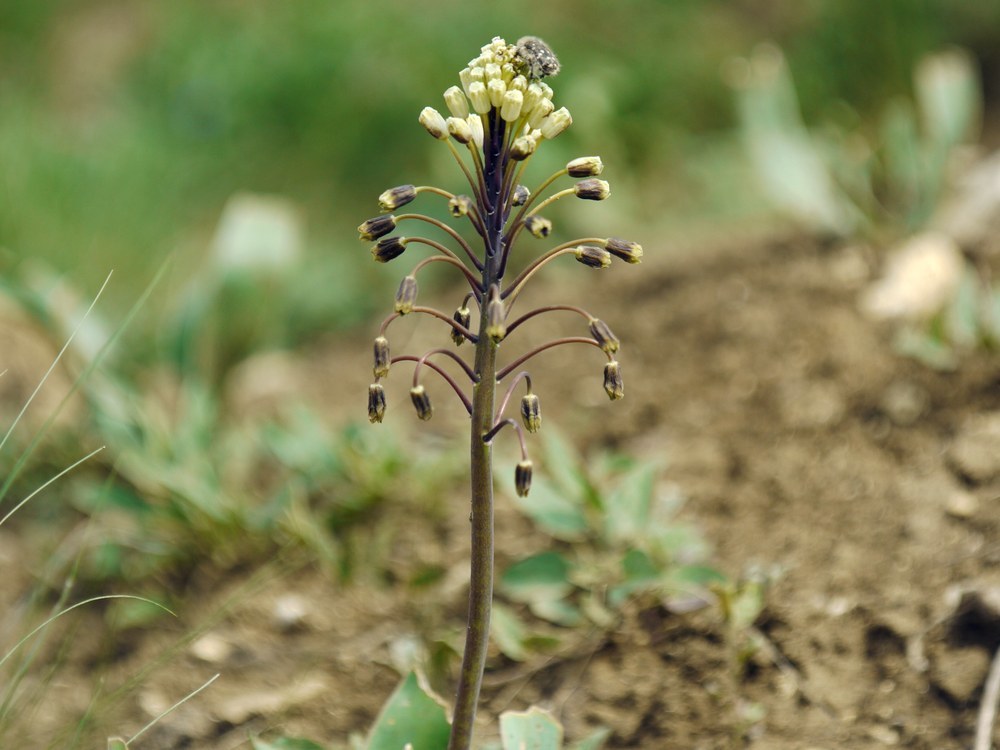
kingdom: Plantae
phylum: Tracheophyta
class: Liliopsida
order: Asparagales
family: Asparagaceae
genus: Bellevalia
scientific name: Bellevalia speciosa
